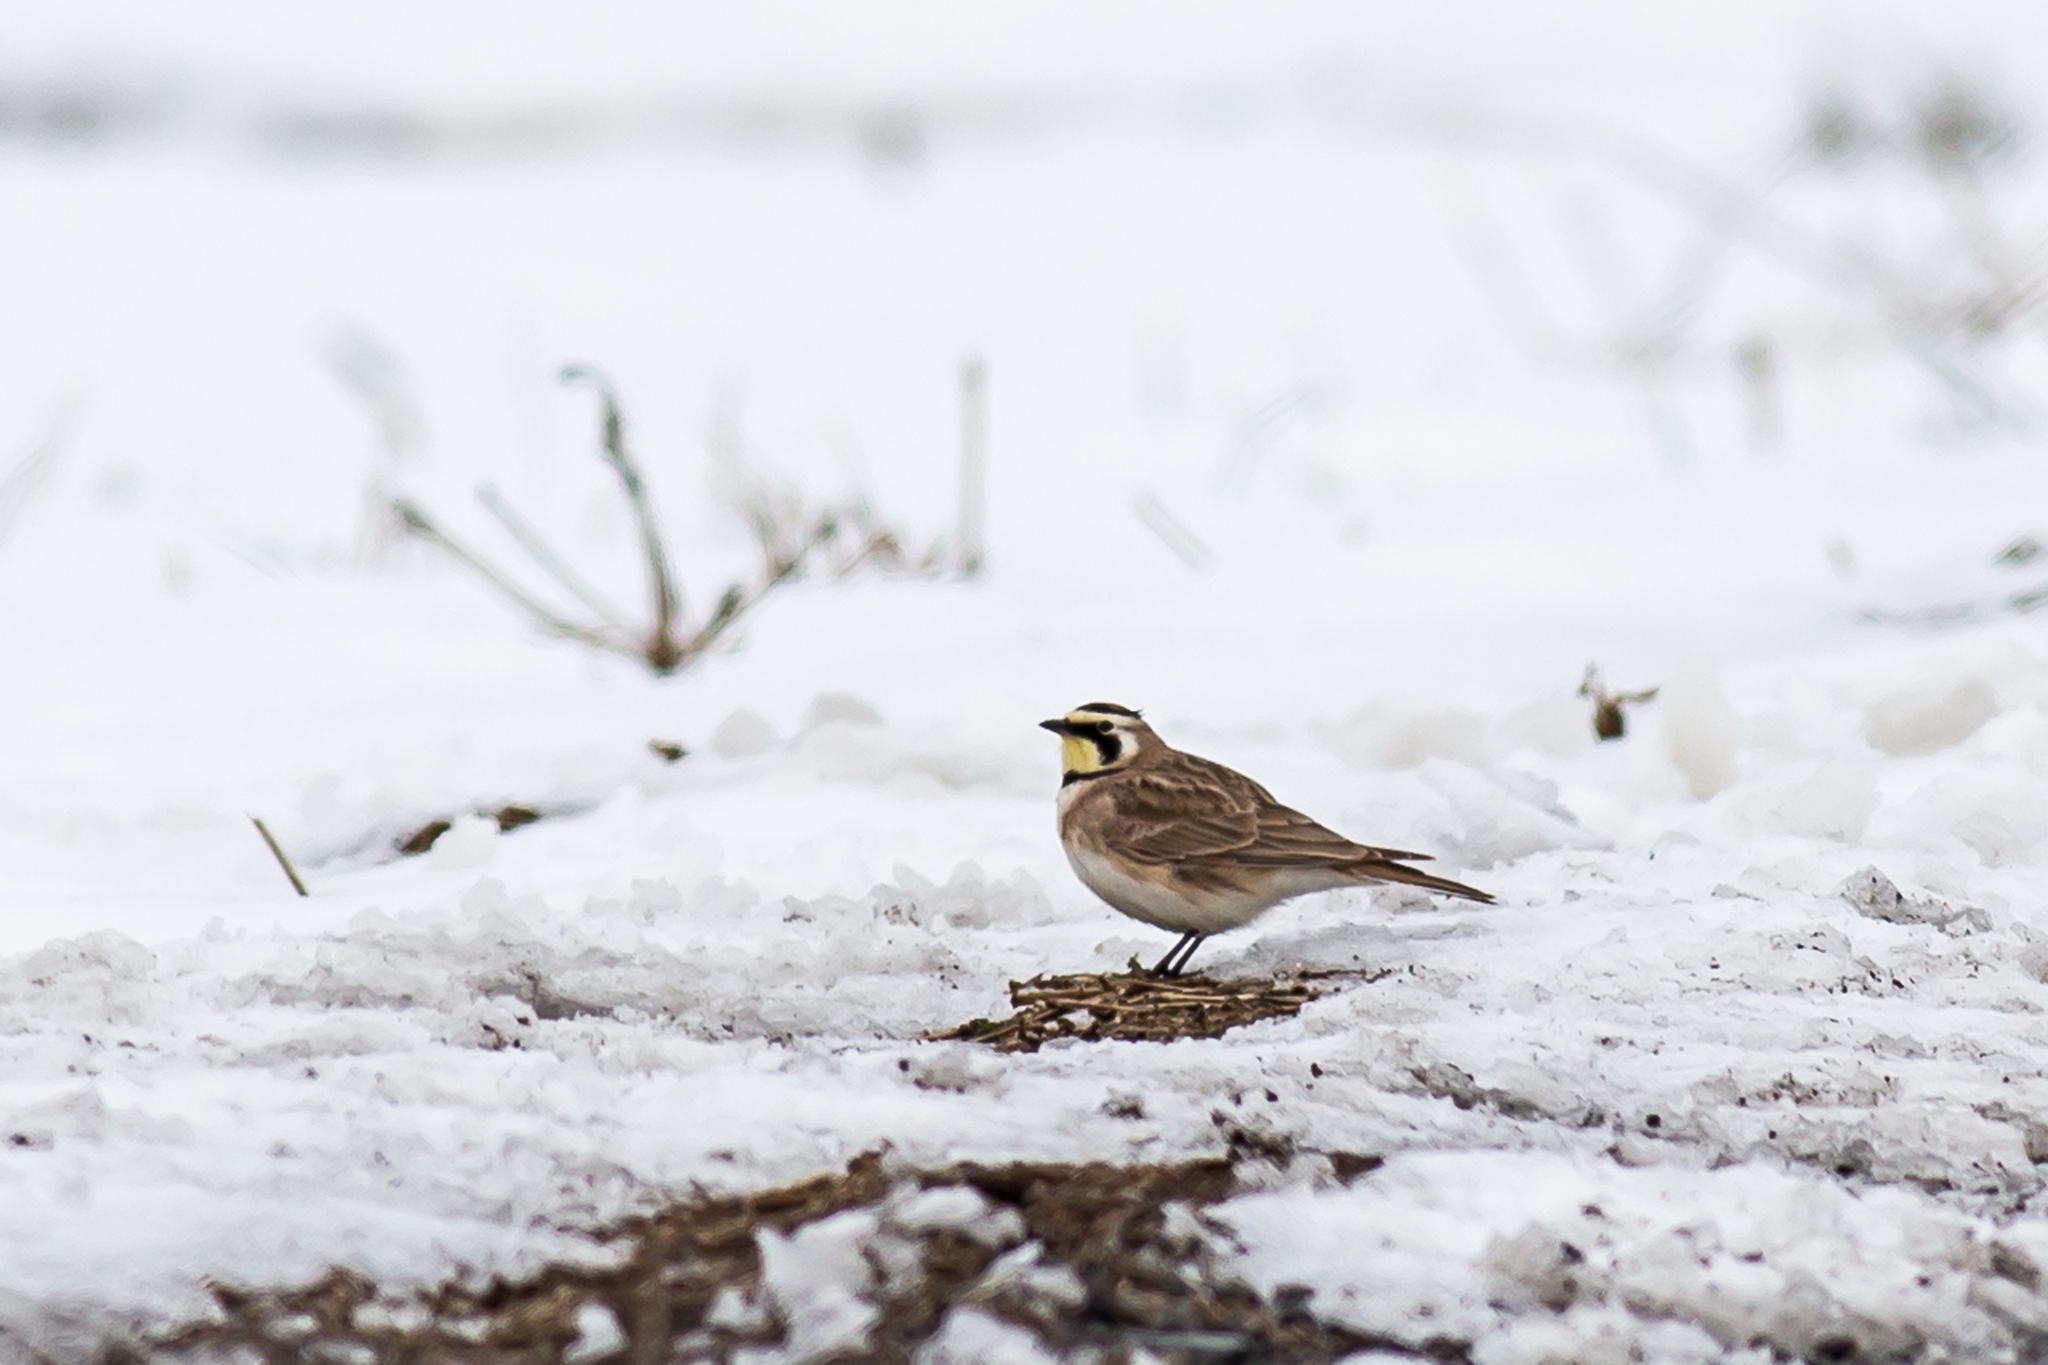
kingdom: Animalia
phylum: Chordata
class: Aves
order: Passeriformes
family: Alaudidae
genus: Eremophila
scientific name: Eremophila alpestris
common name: Horned lark
